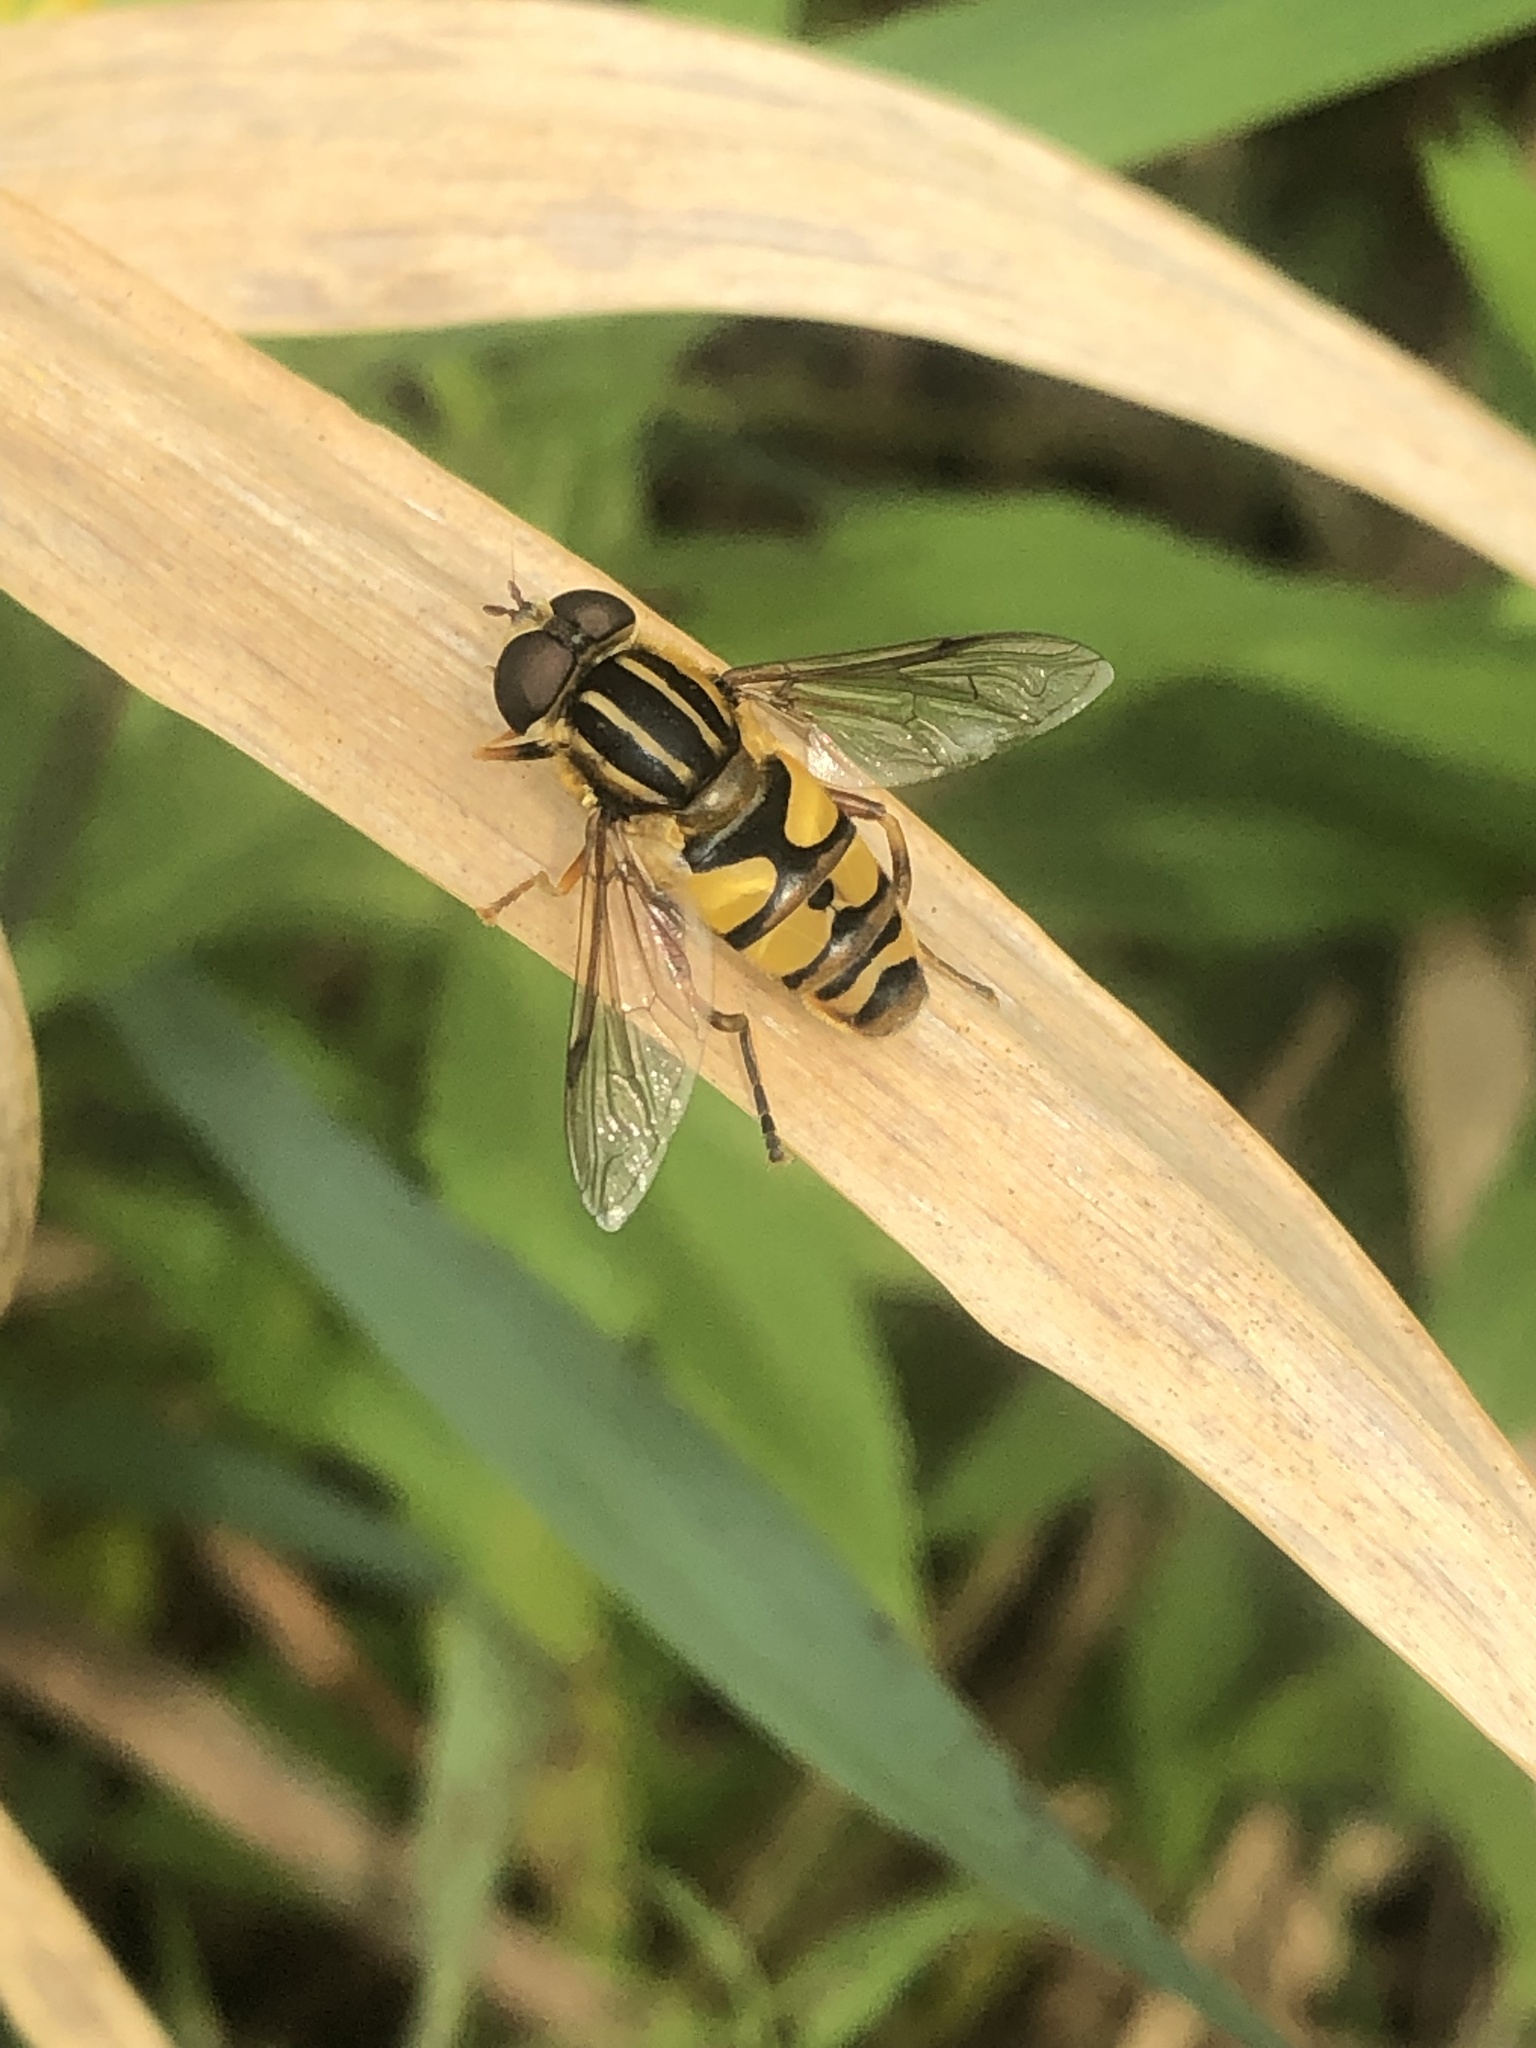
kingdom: Animalia
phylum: Arthropoda
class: Insecta
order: Diptera
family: Syrphidae
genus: Helophilus
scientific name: Helophilus fasciatus
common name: Narrow-headed marsh fly
